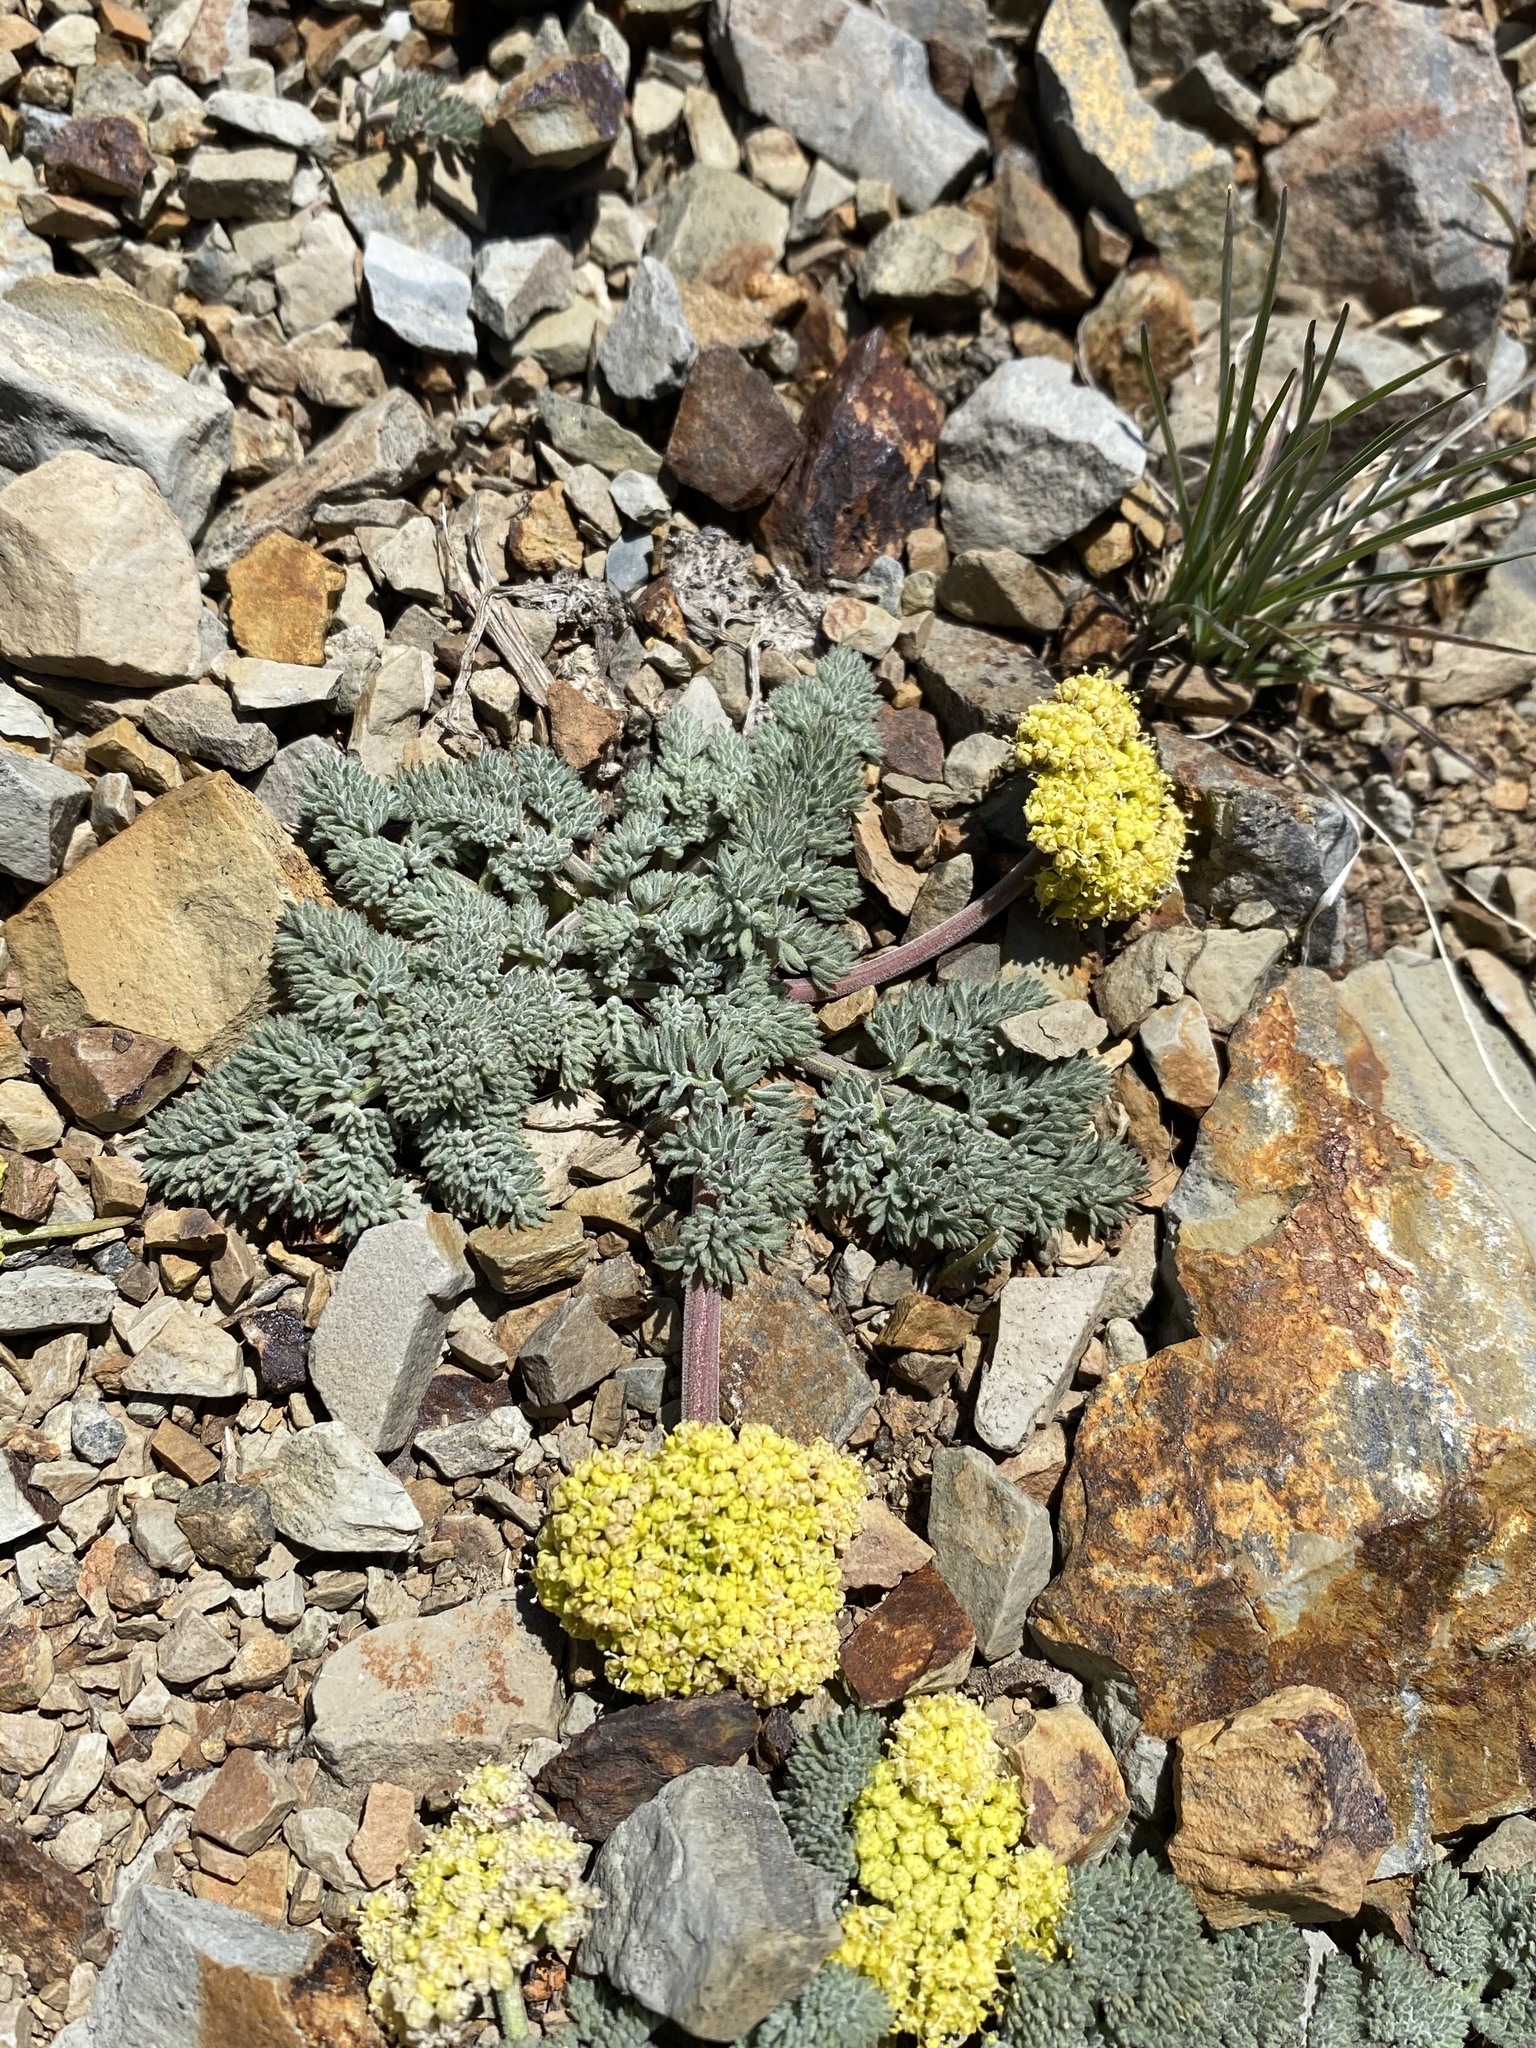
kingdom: Plantae
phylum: Tracheophyta
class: Magnoliopsida
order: Apiales
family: Apiaceae
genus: Lomatium
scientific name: Lomatium foeniculaceum
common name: Desert-parsley
